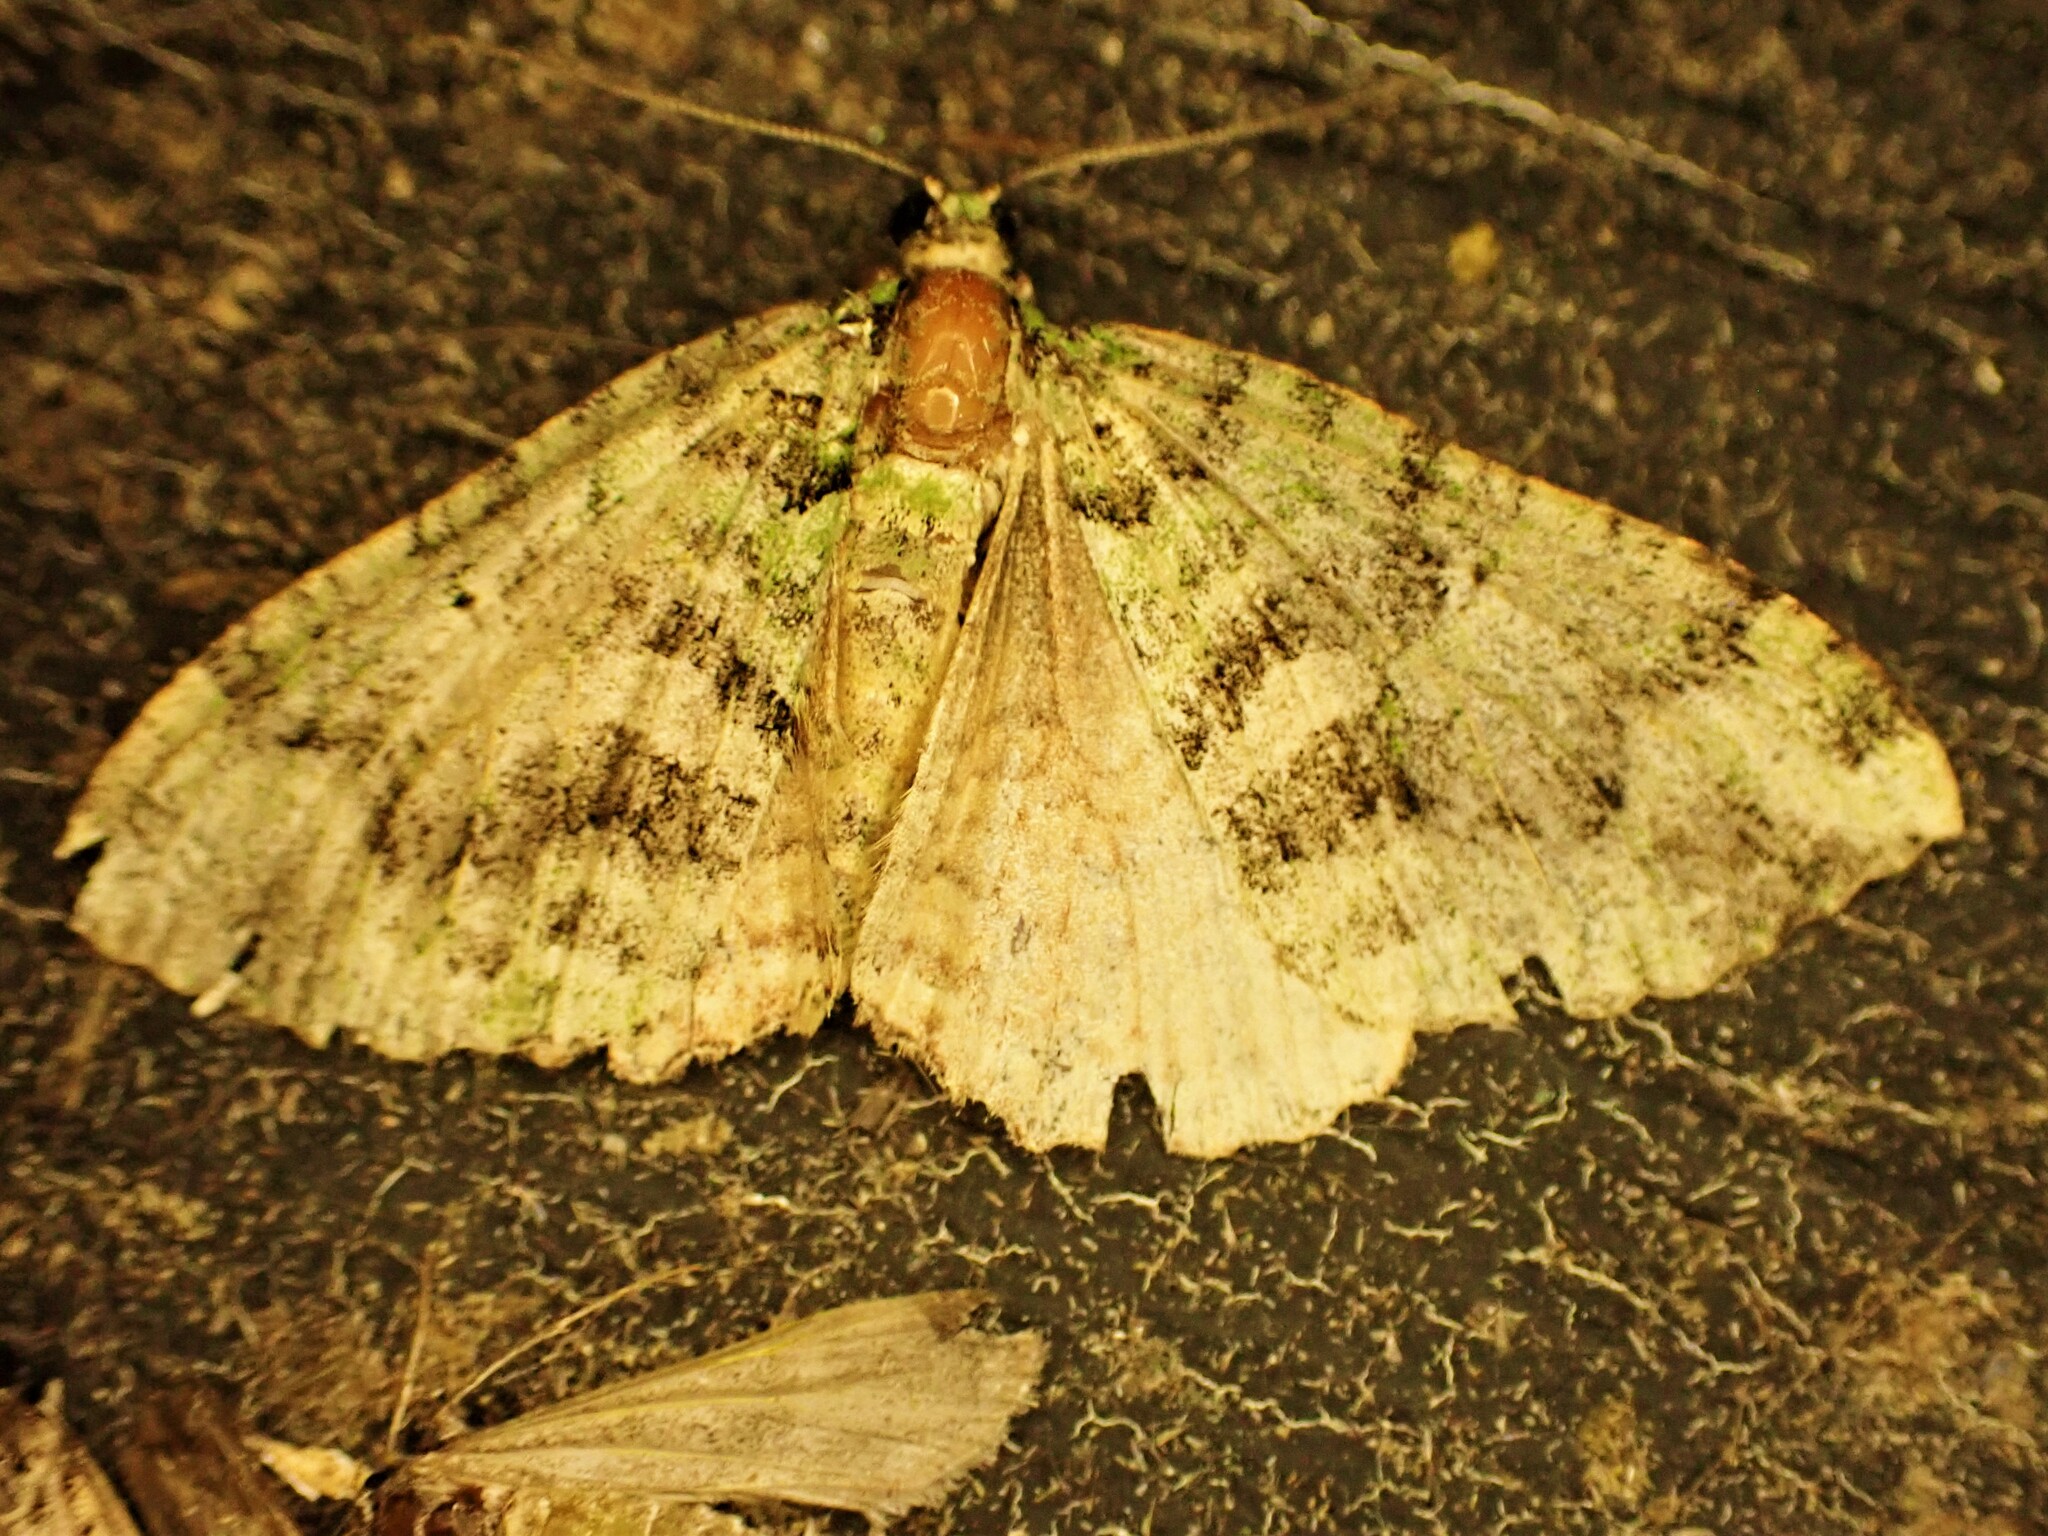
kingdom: Animalia
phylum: Arthropoda
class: Insecta
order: Lepidoptera
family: Geometridae
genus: Austrocidaria
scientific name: Austrocidaria similata
